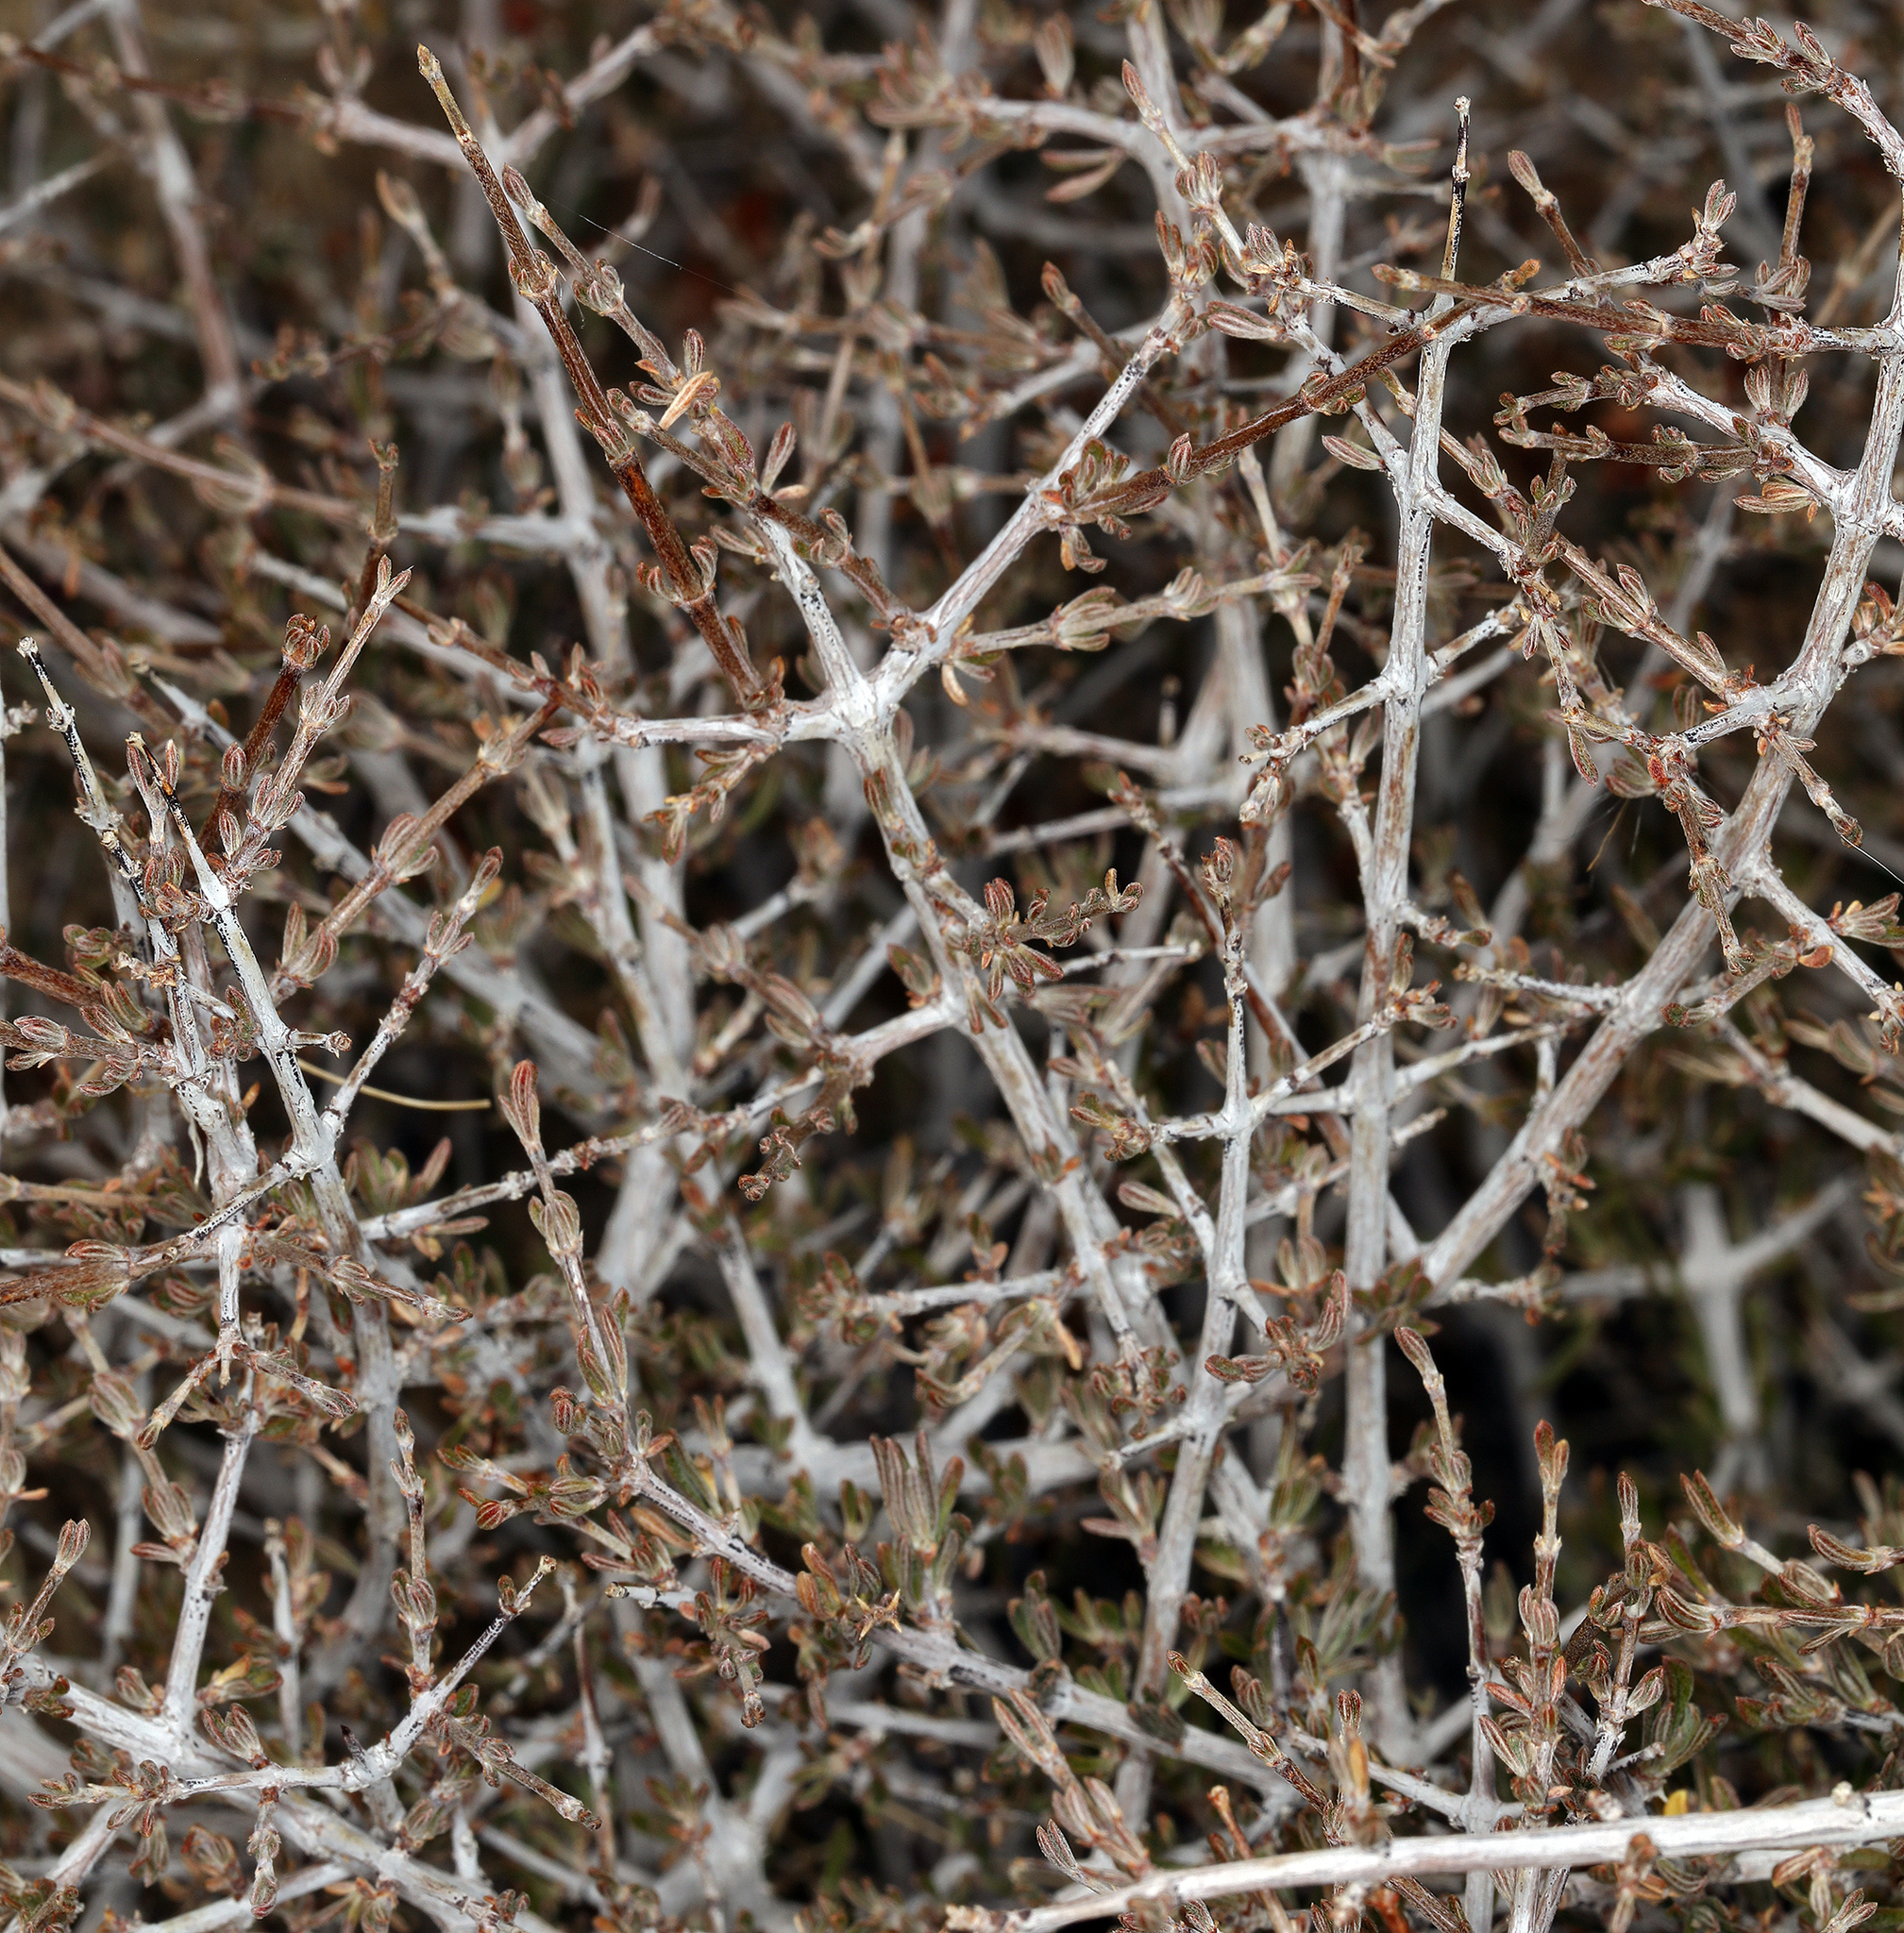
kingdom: Plantae
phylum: Tracheophyta
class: Magnoliopsida
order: Rosales
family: Rosaceae
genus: Coleogyne
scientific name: Coleogyne ramosissima
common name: Blackbrush
